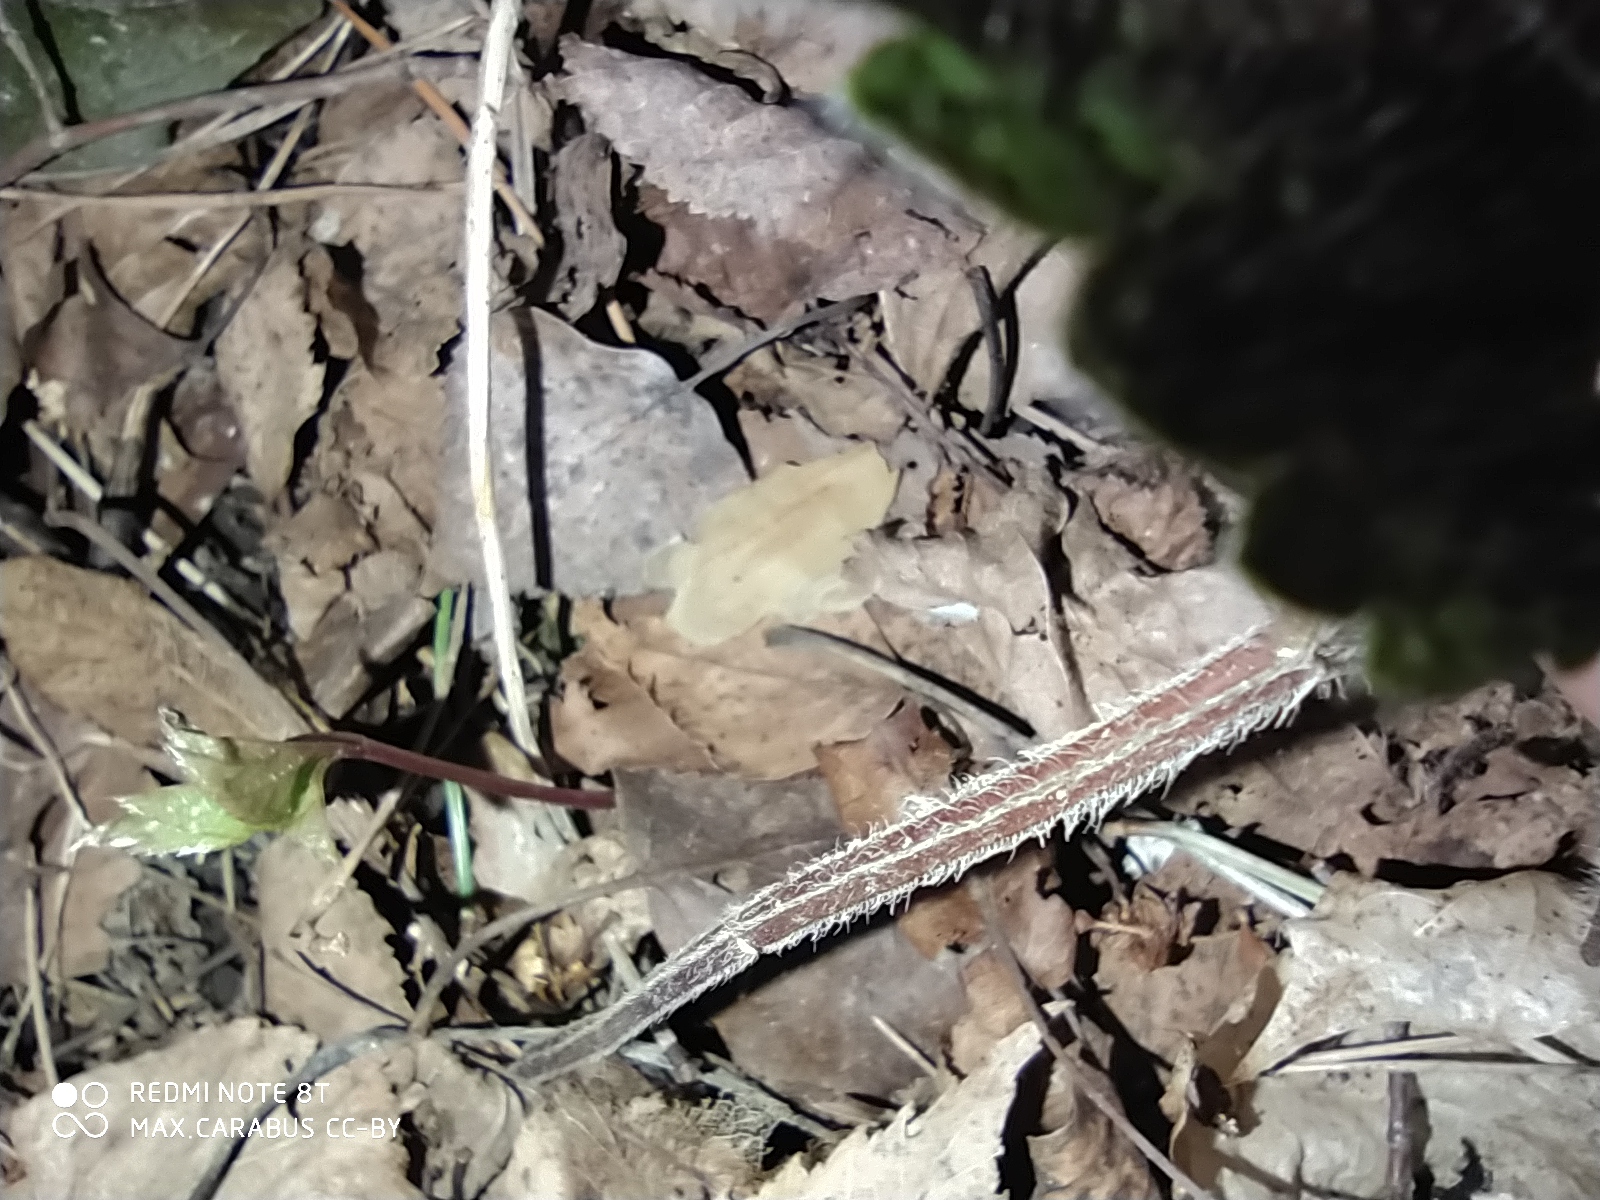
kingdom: Plantae
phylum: Tracheophyta
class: Magnoliopsida
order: Lamiales
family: Lamiaceae
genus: Lamium
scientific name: Lamium galeobdolon
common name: Yellow archangel
